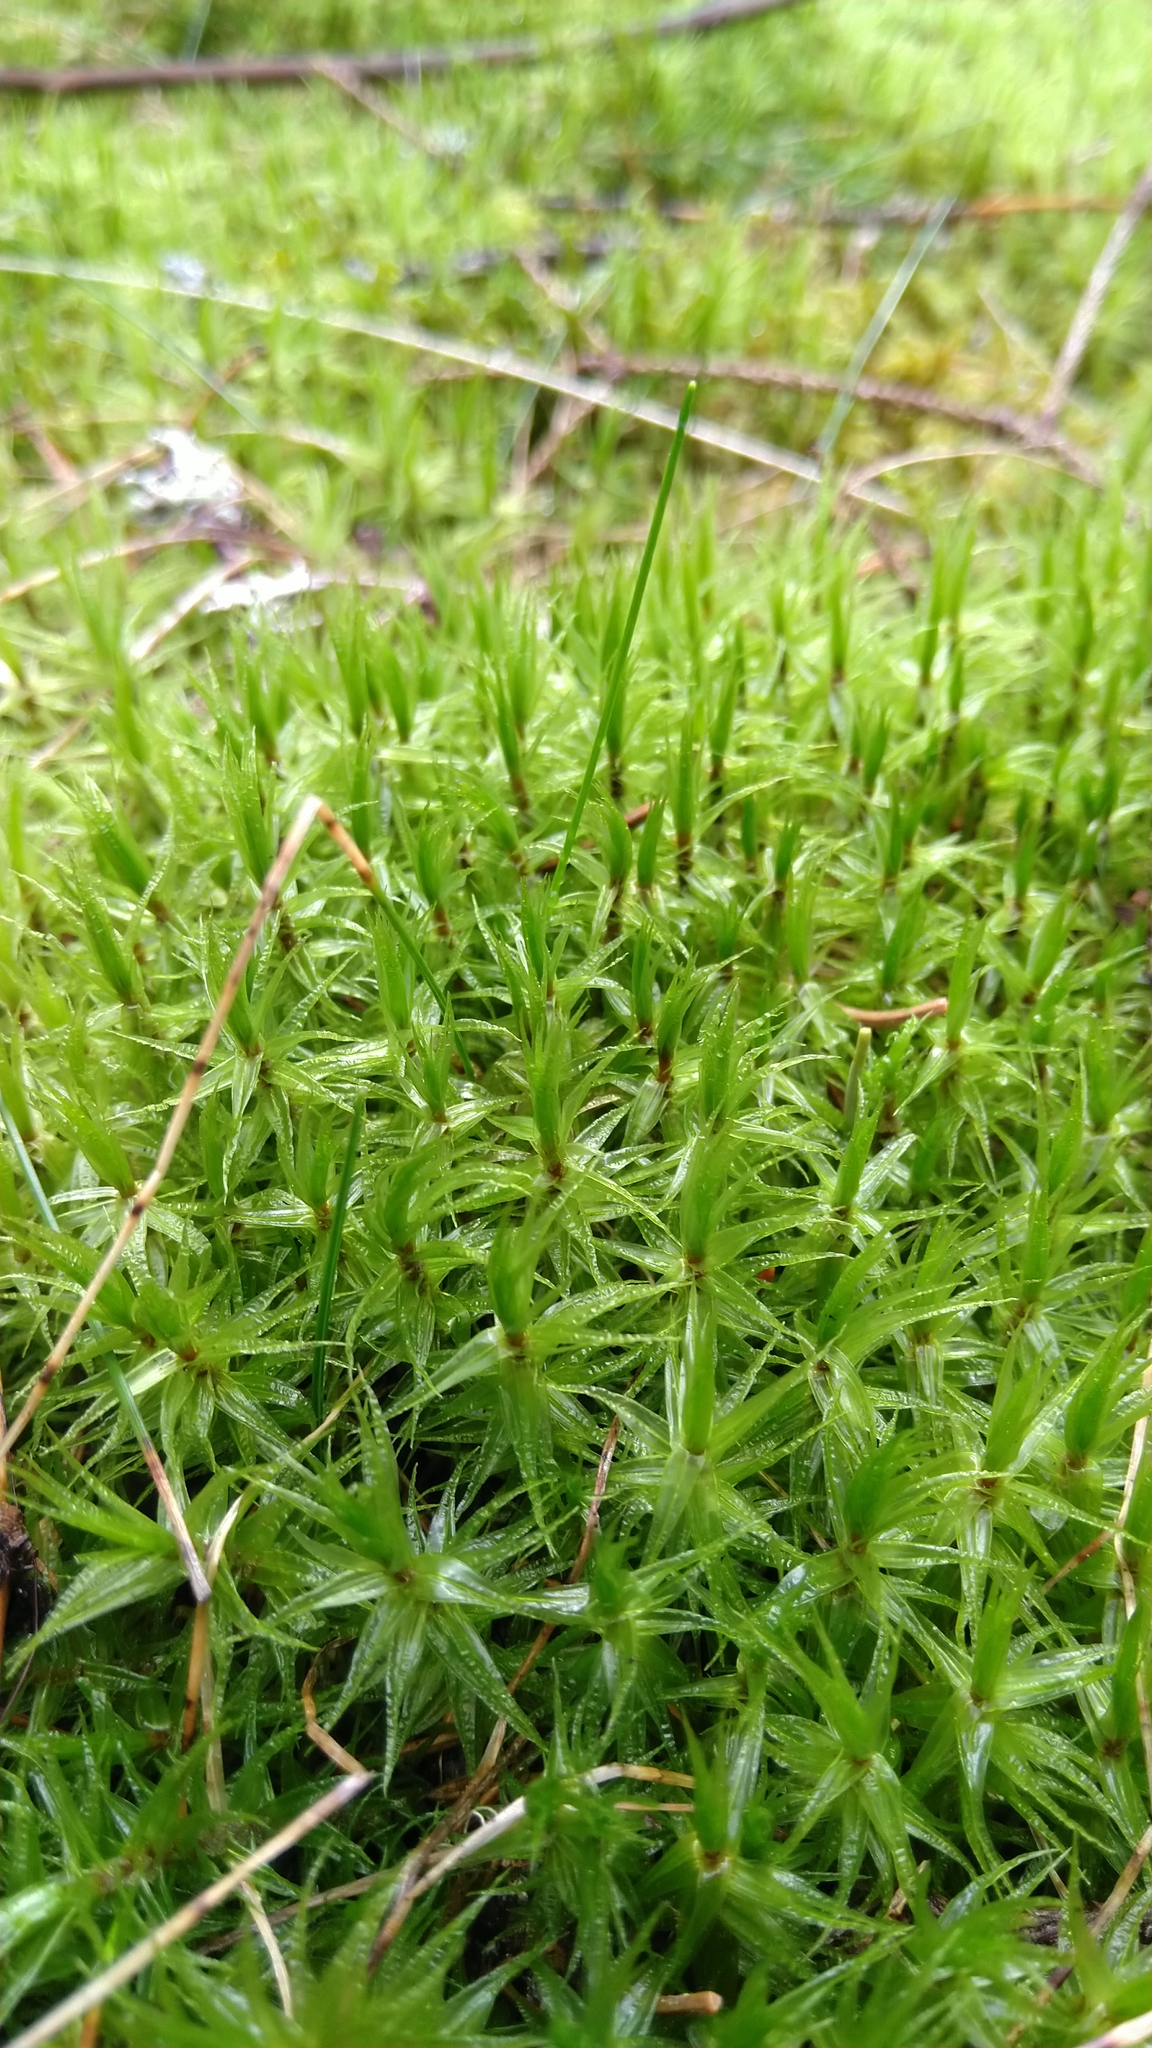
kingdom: Plantae
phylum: Bryophyta
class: Bryopsida
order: Dicranales
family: Dicranaceae
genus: Dicranum
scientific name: Dicranum polysetum
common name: Rugose fork-moss
